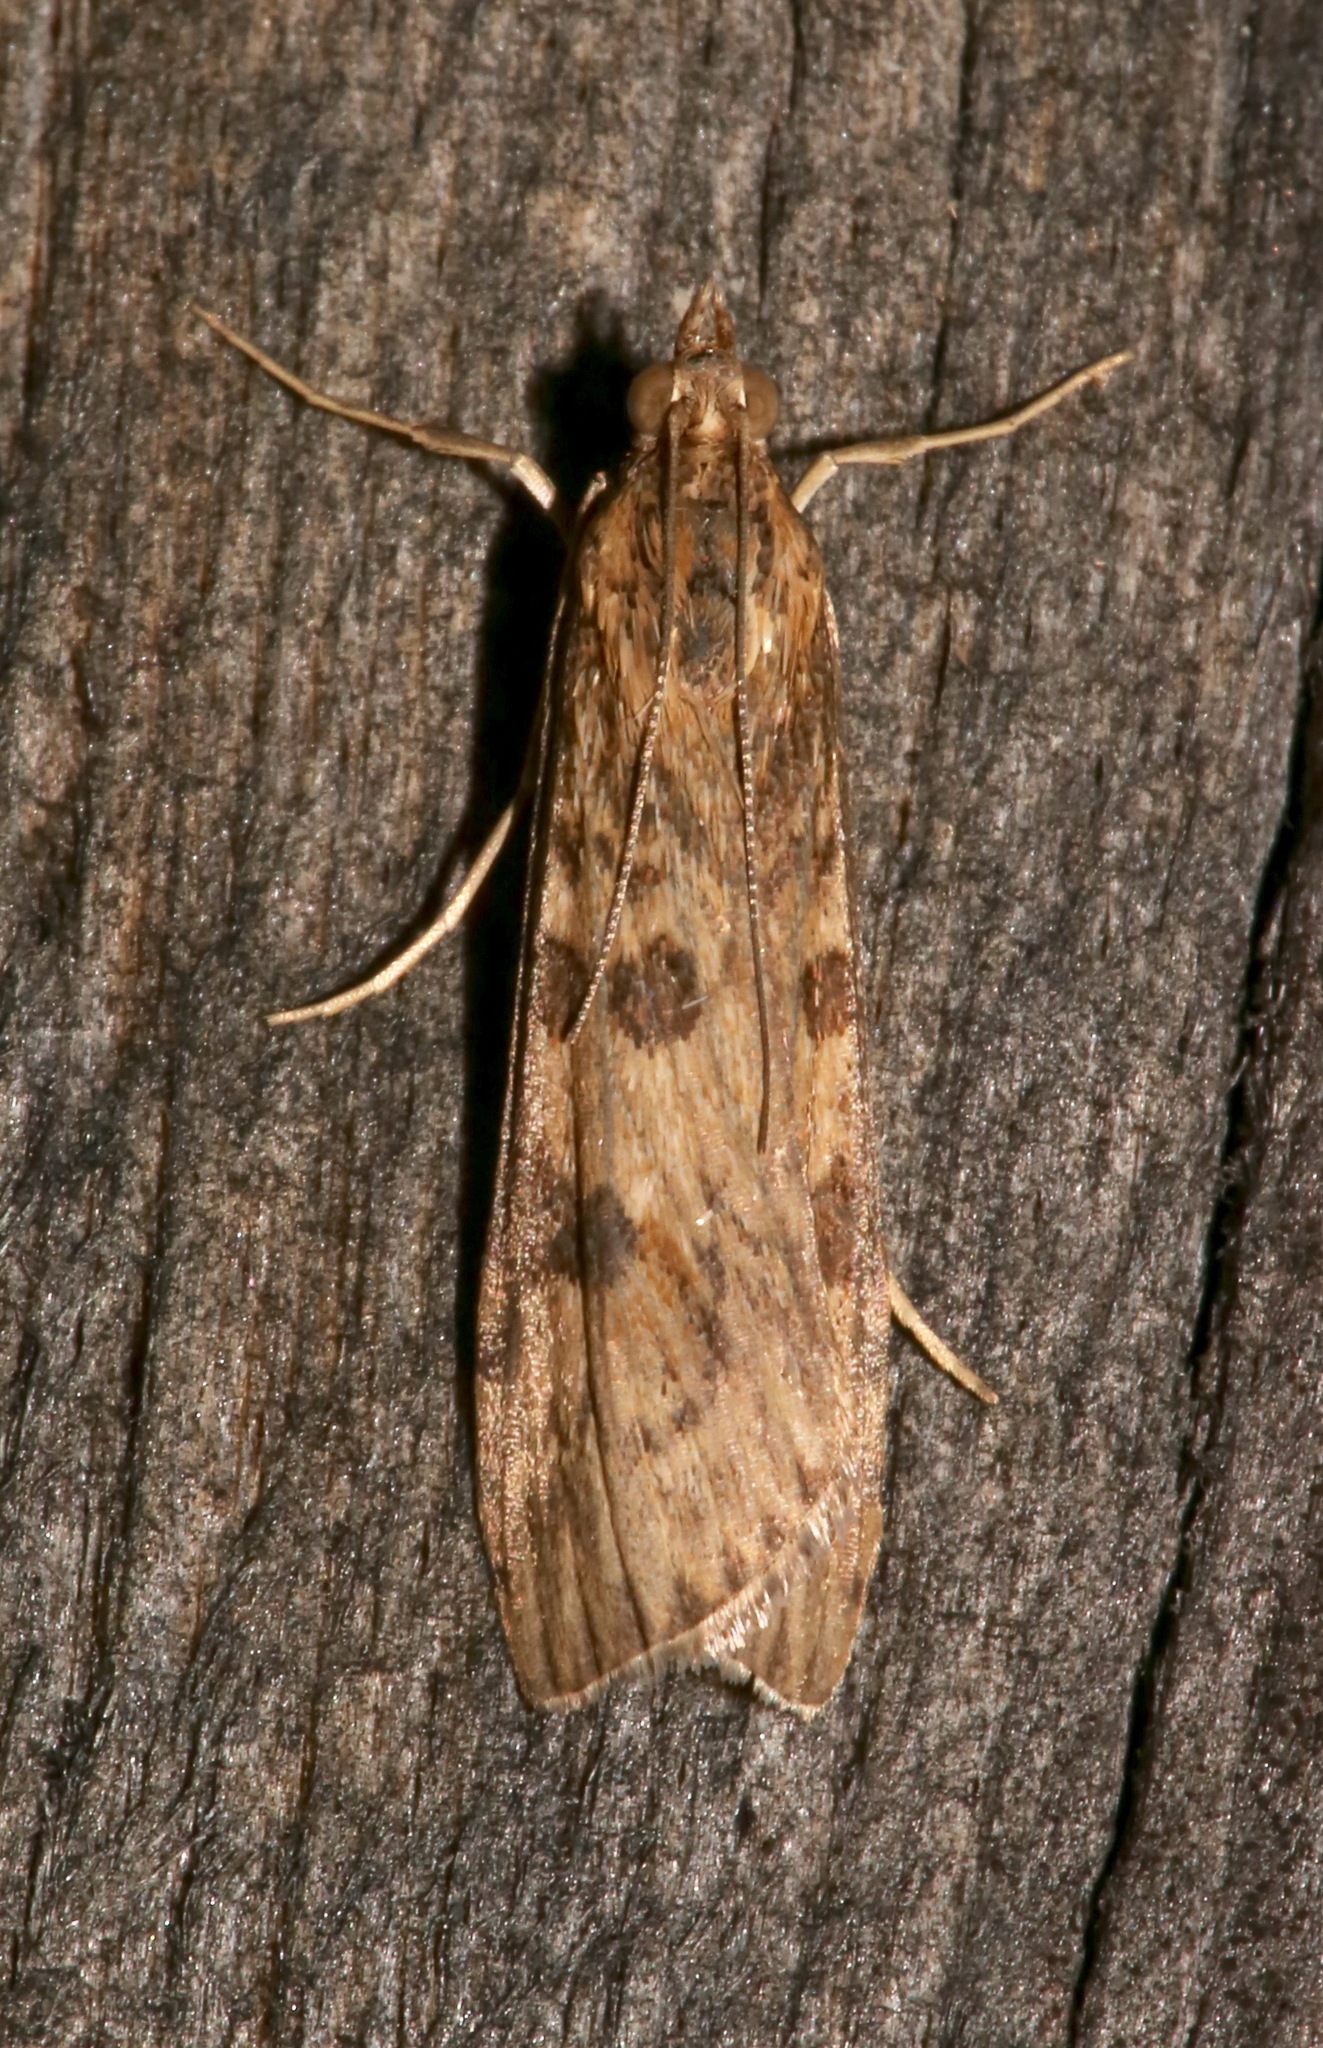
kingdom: Animalia
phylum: Arthropoda
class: Insecta
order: Lepidoptera
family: Crambidae
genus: Nomophila
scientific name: Nomophila nearctica
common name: American rush veneer
